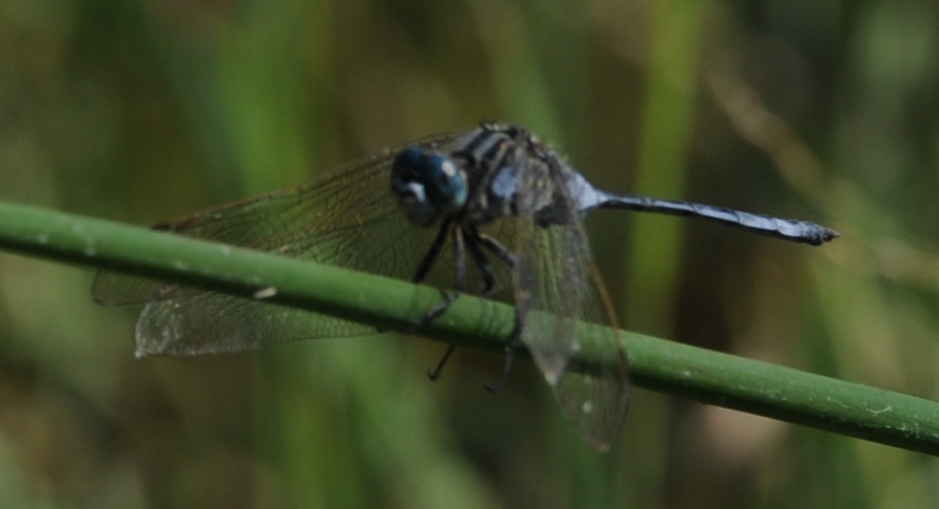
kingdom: Animalia
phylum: Arthropoda
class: Insecta
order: Odonata
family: Libellulidae
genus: Orthetrum
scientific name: Orthetrum icteromelas
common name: Spectacled skimmer
